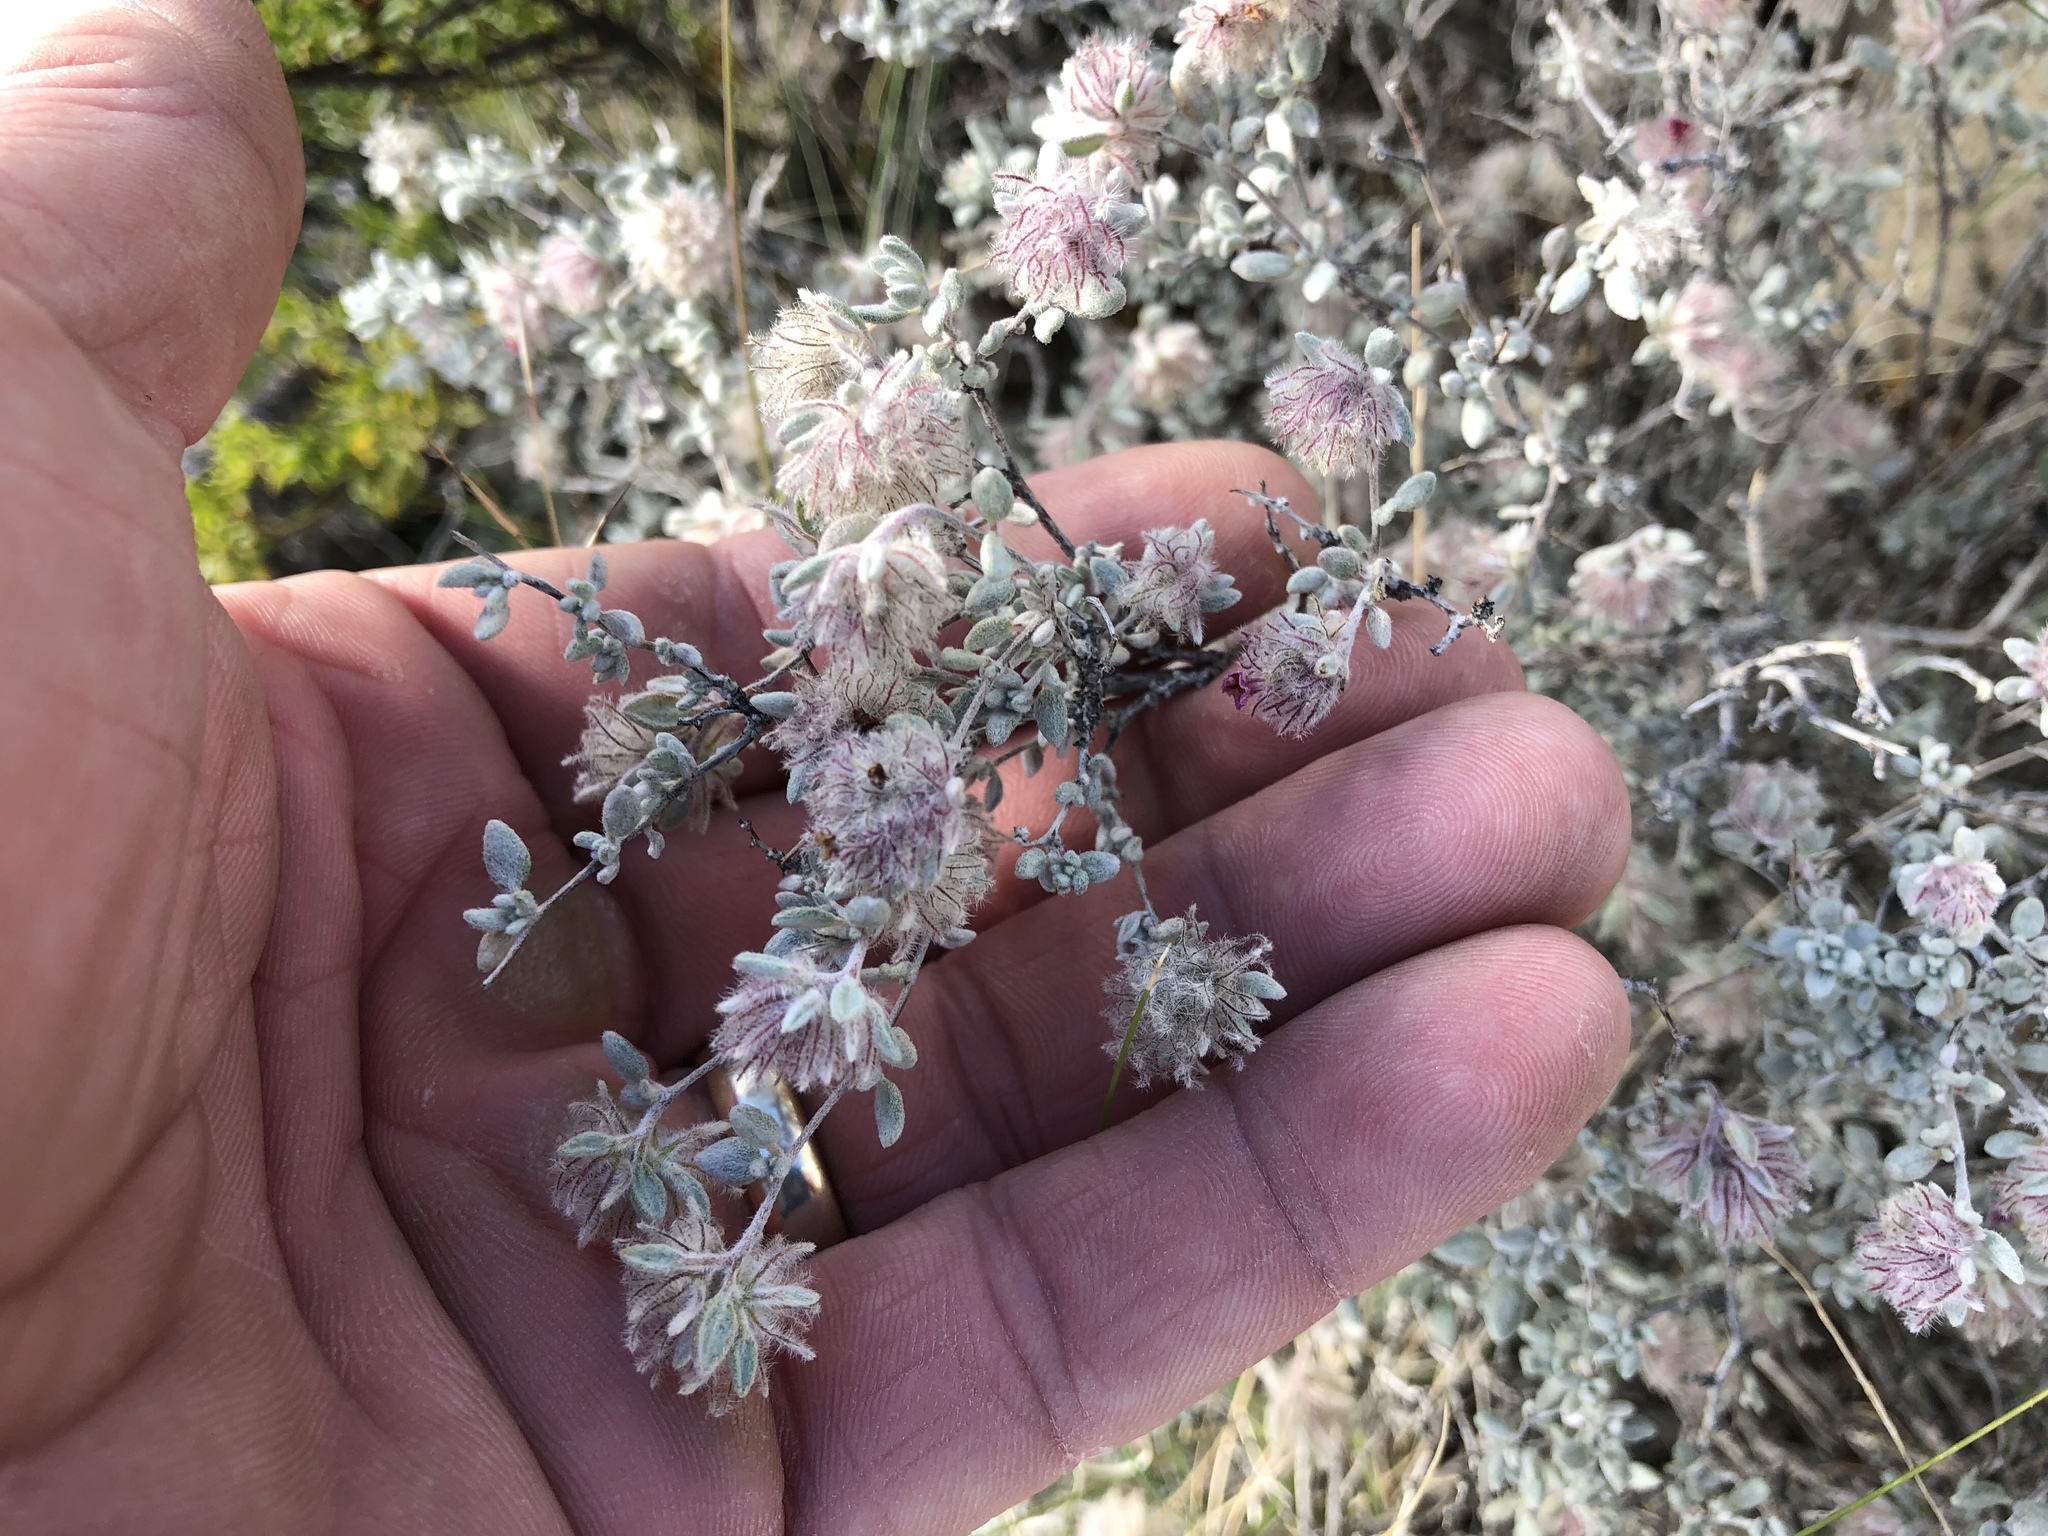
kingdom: Plantae
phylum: Tracheophyta
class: Magnoliopsida
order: Boraginales
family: Ehretiaceae
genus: Tiquilia
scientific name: Tiquilia greggii
